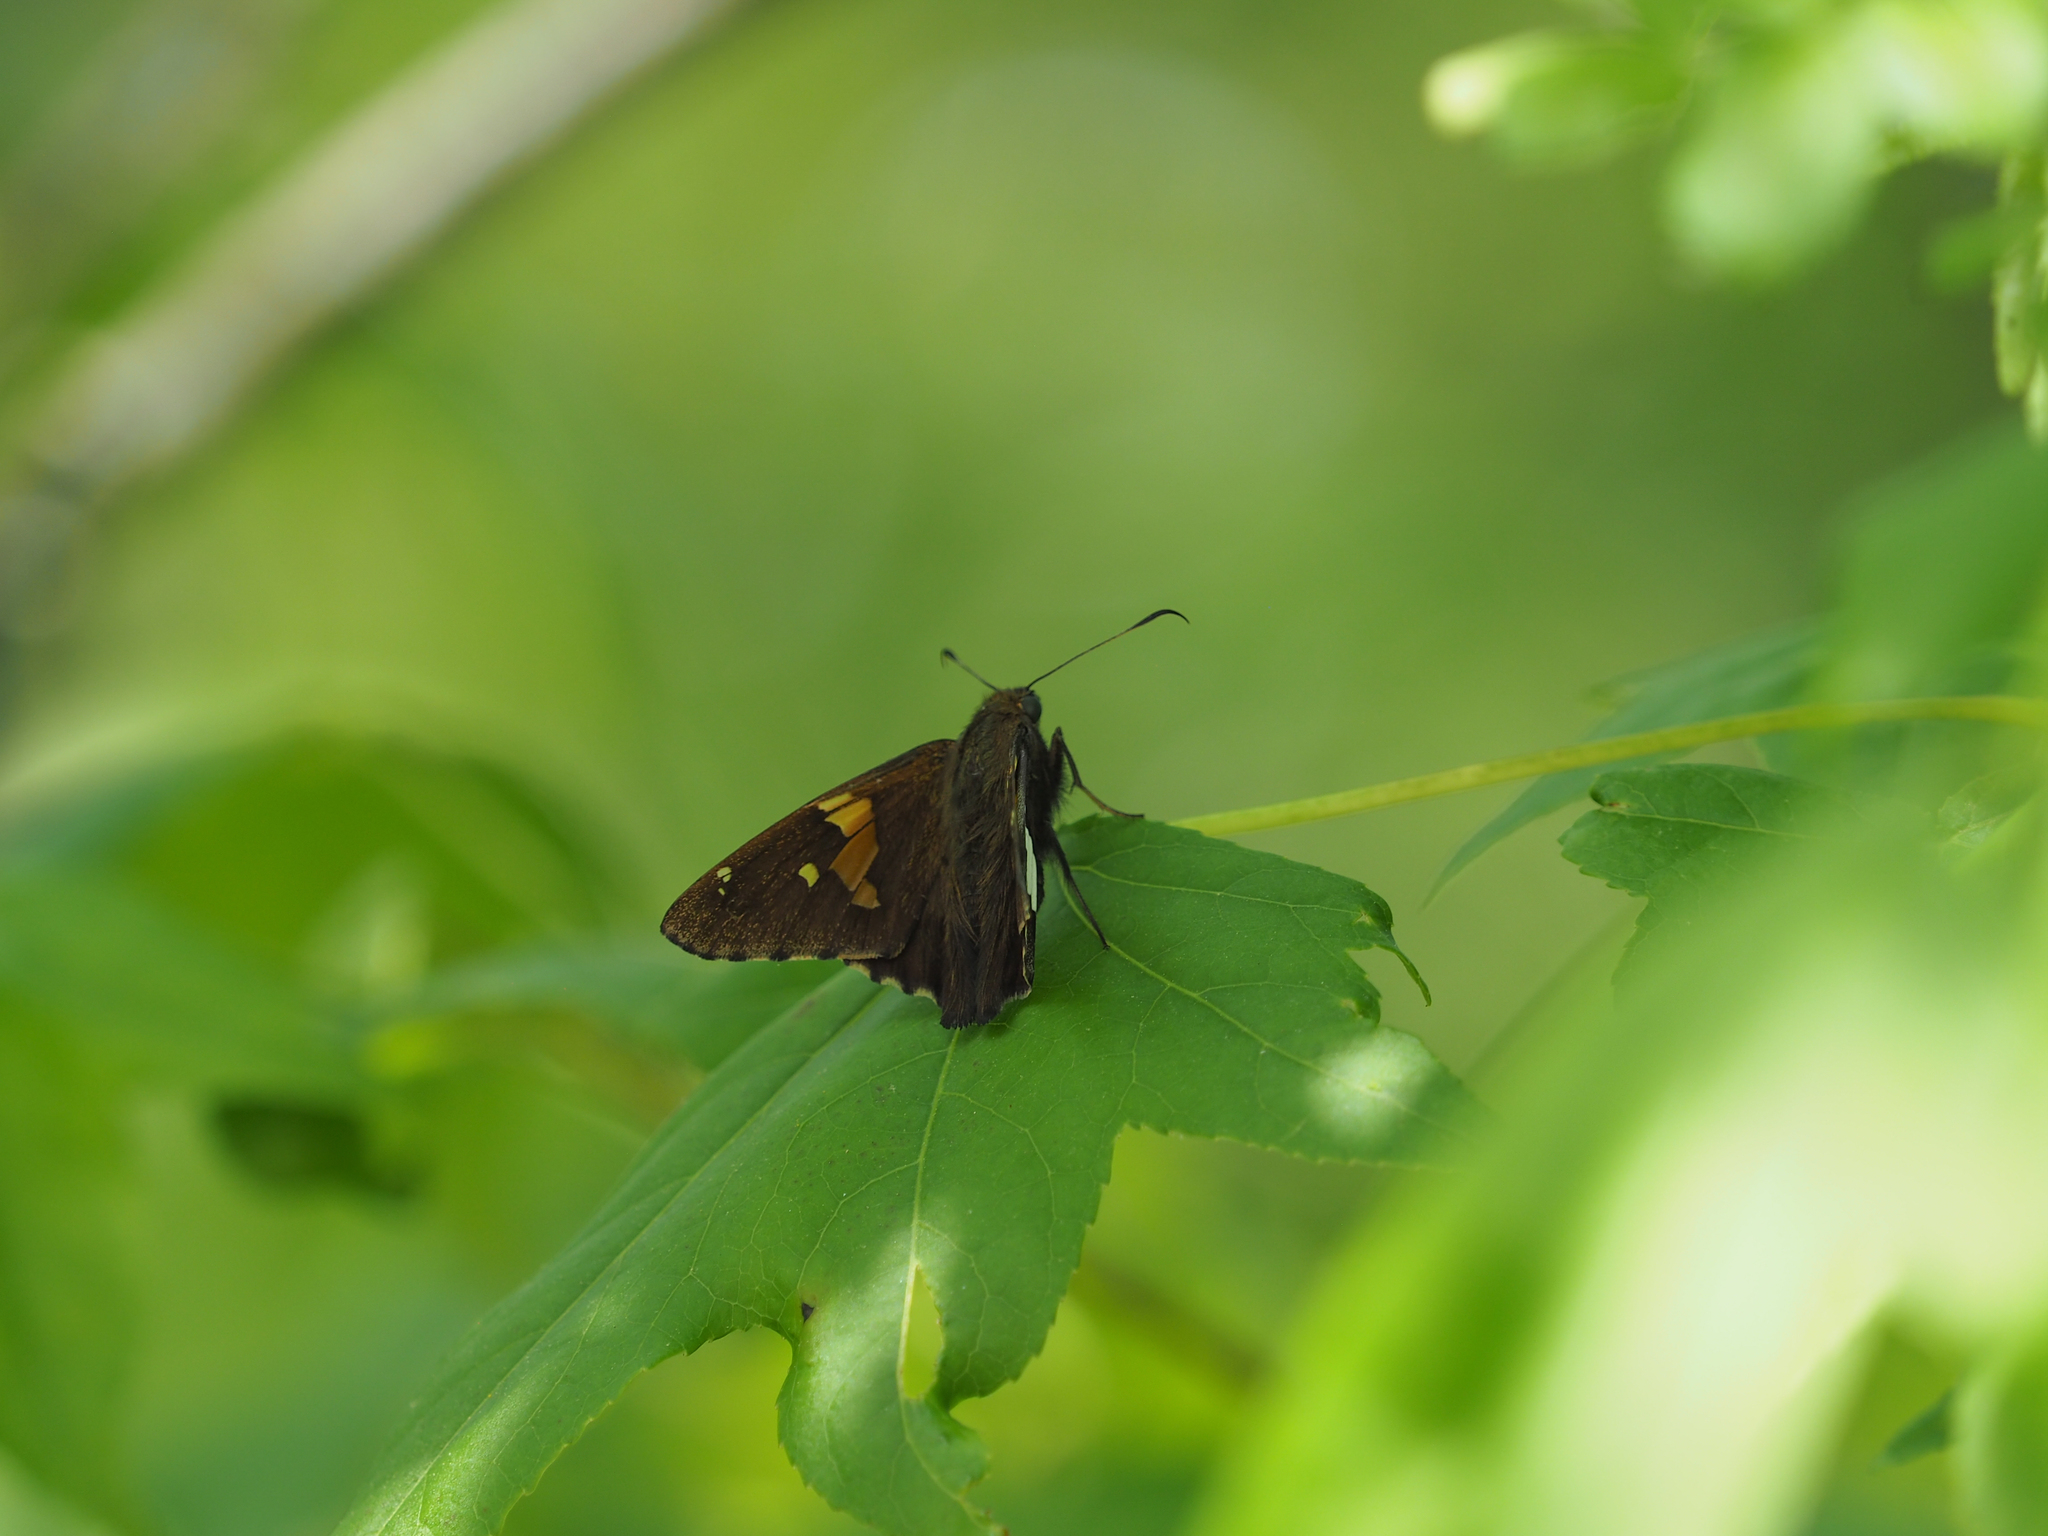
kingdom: Animalia
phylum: Arthropoda
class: Insecta
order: Lepidoptera
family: Hesperiidae
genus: Epargyreus
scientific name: Epargyreus clarus
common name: Silver-spotted skipper
